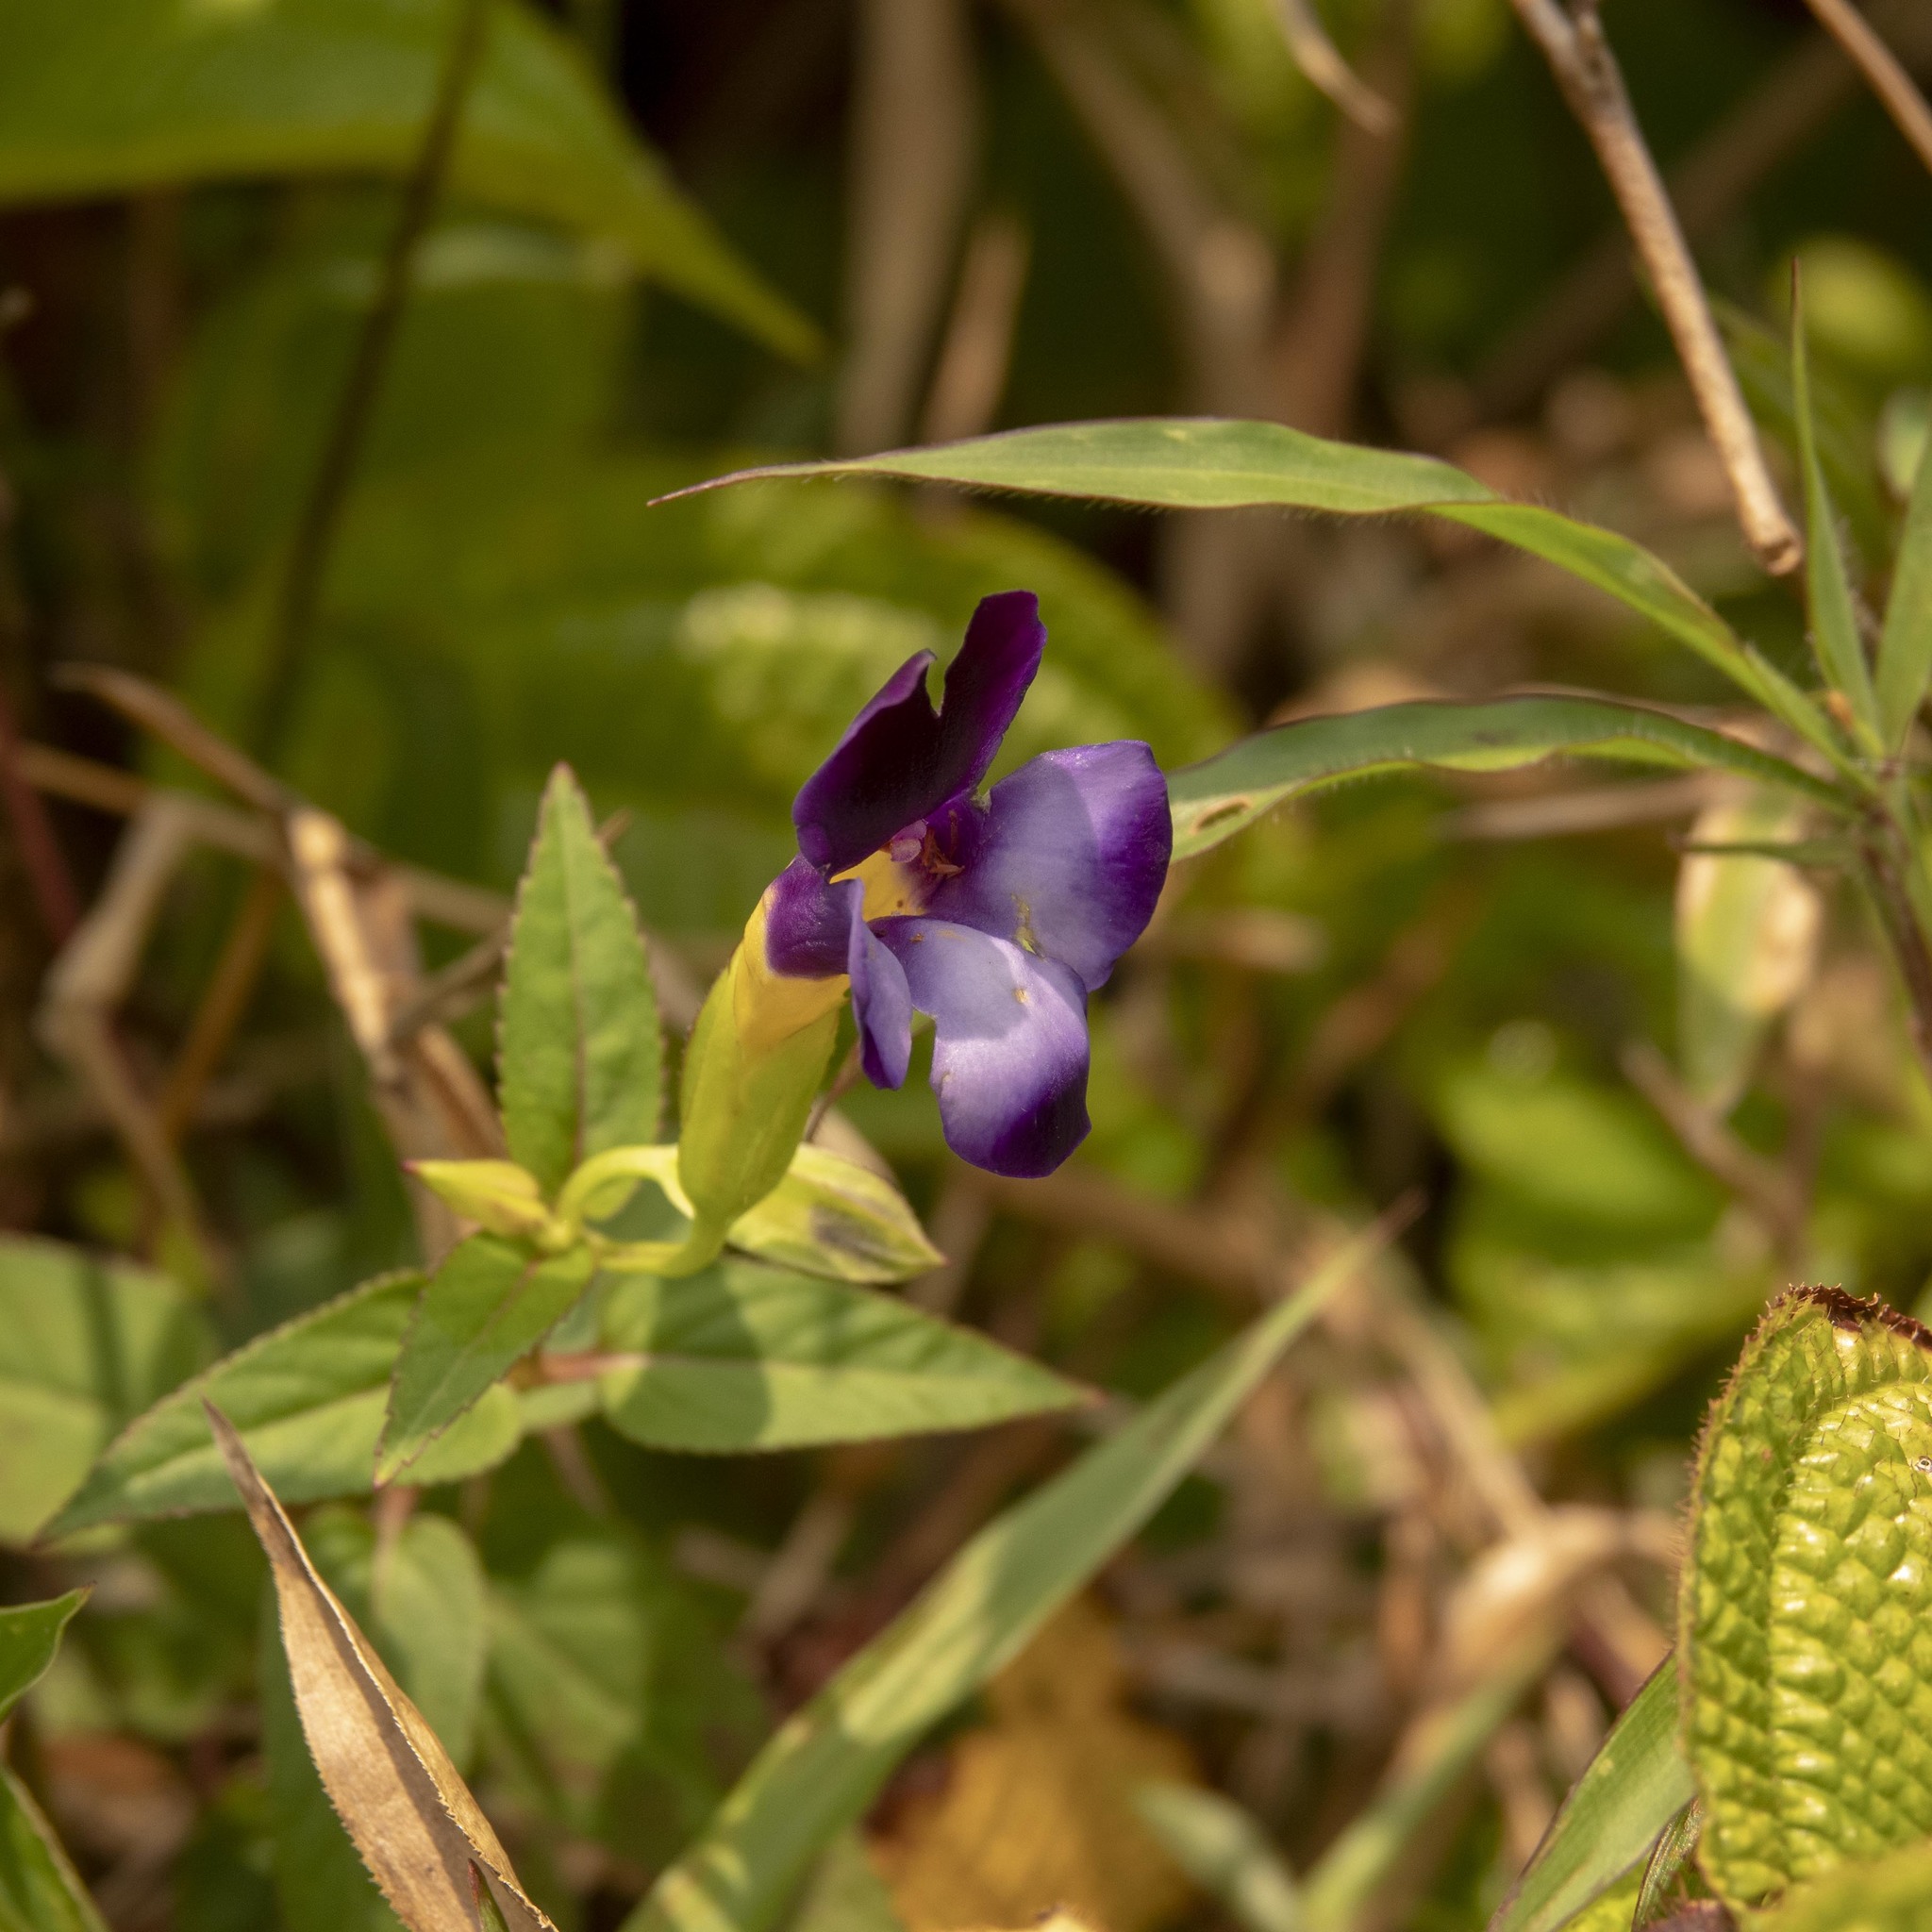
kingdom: Plantae
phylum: Tracheophyta
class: Magnoliopsida
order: Lamiales
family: Linderniaceae
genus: Torenia
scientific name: Torenia leucosiphon
